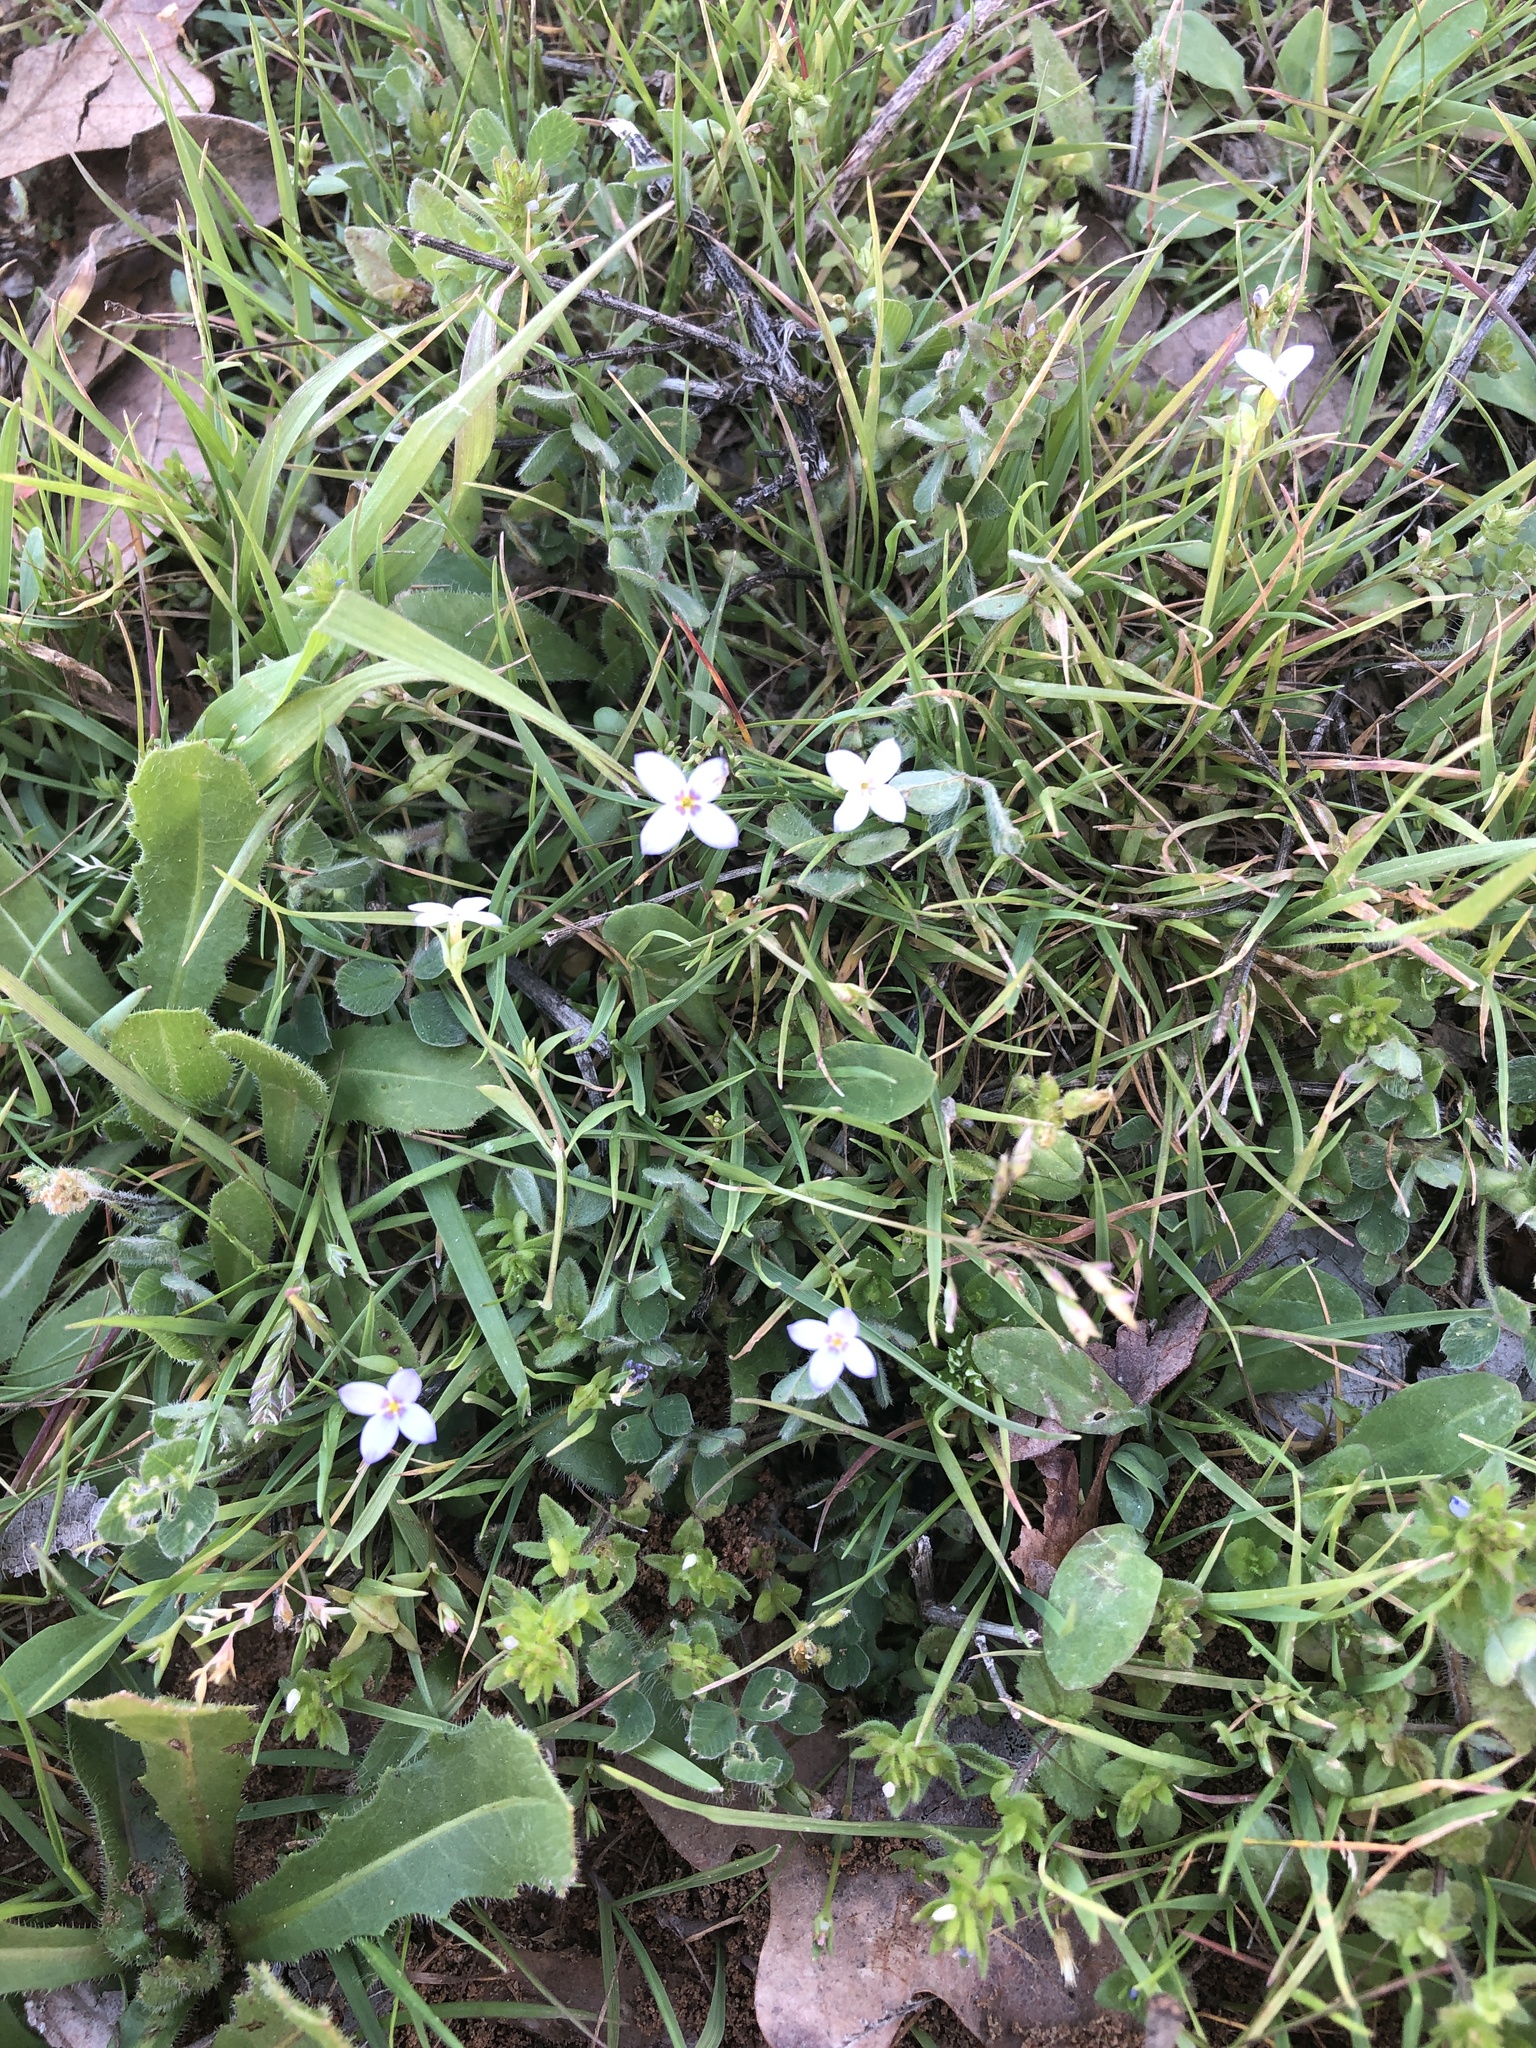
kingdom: Plantae
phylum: Tracheophyta
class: Magnoliopsida
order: Gentianales
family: Rubiaceae
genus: Houstonia
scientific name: Houstonia pusilla
